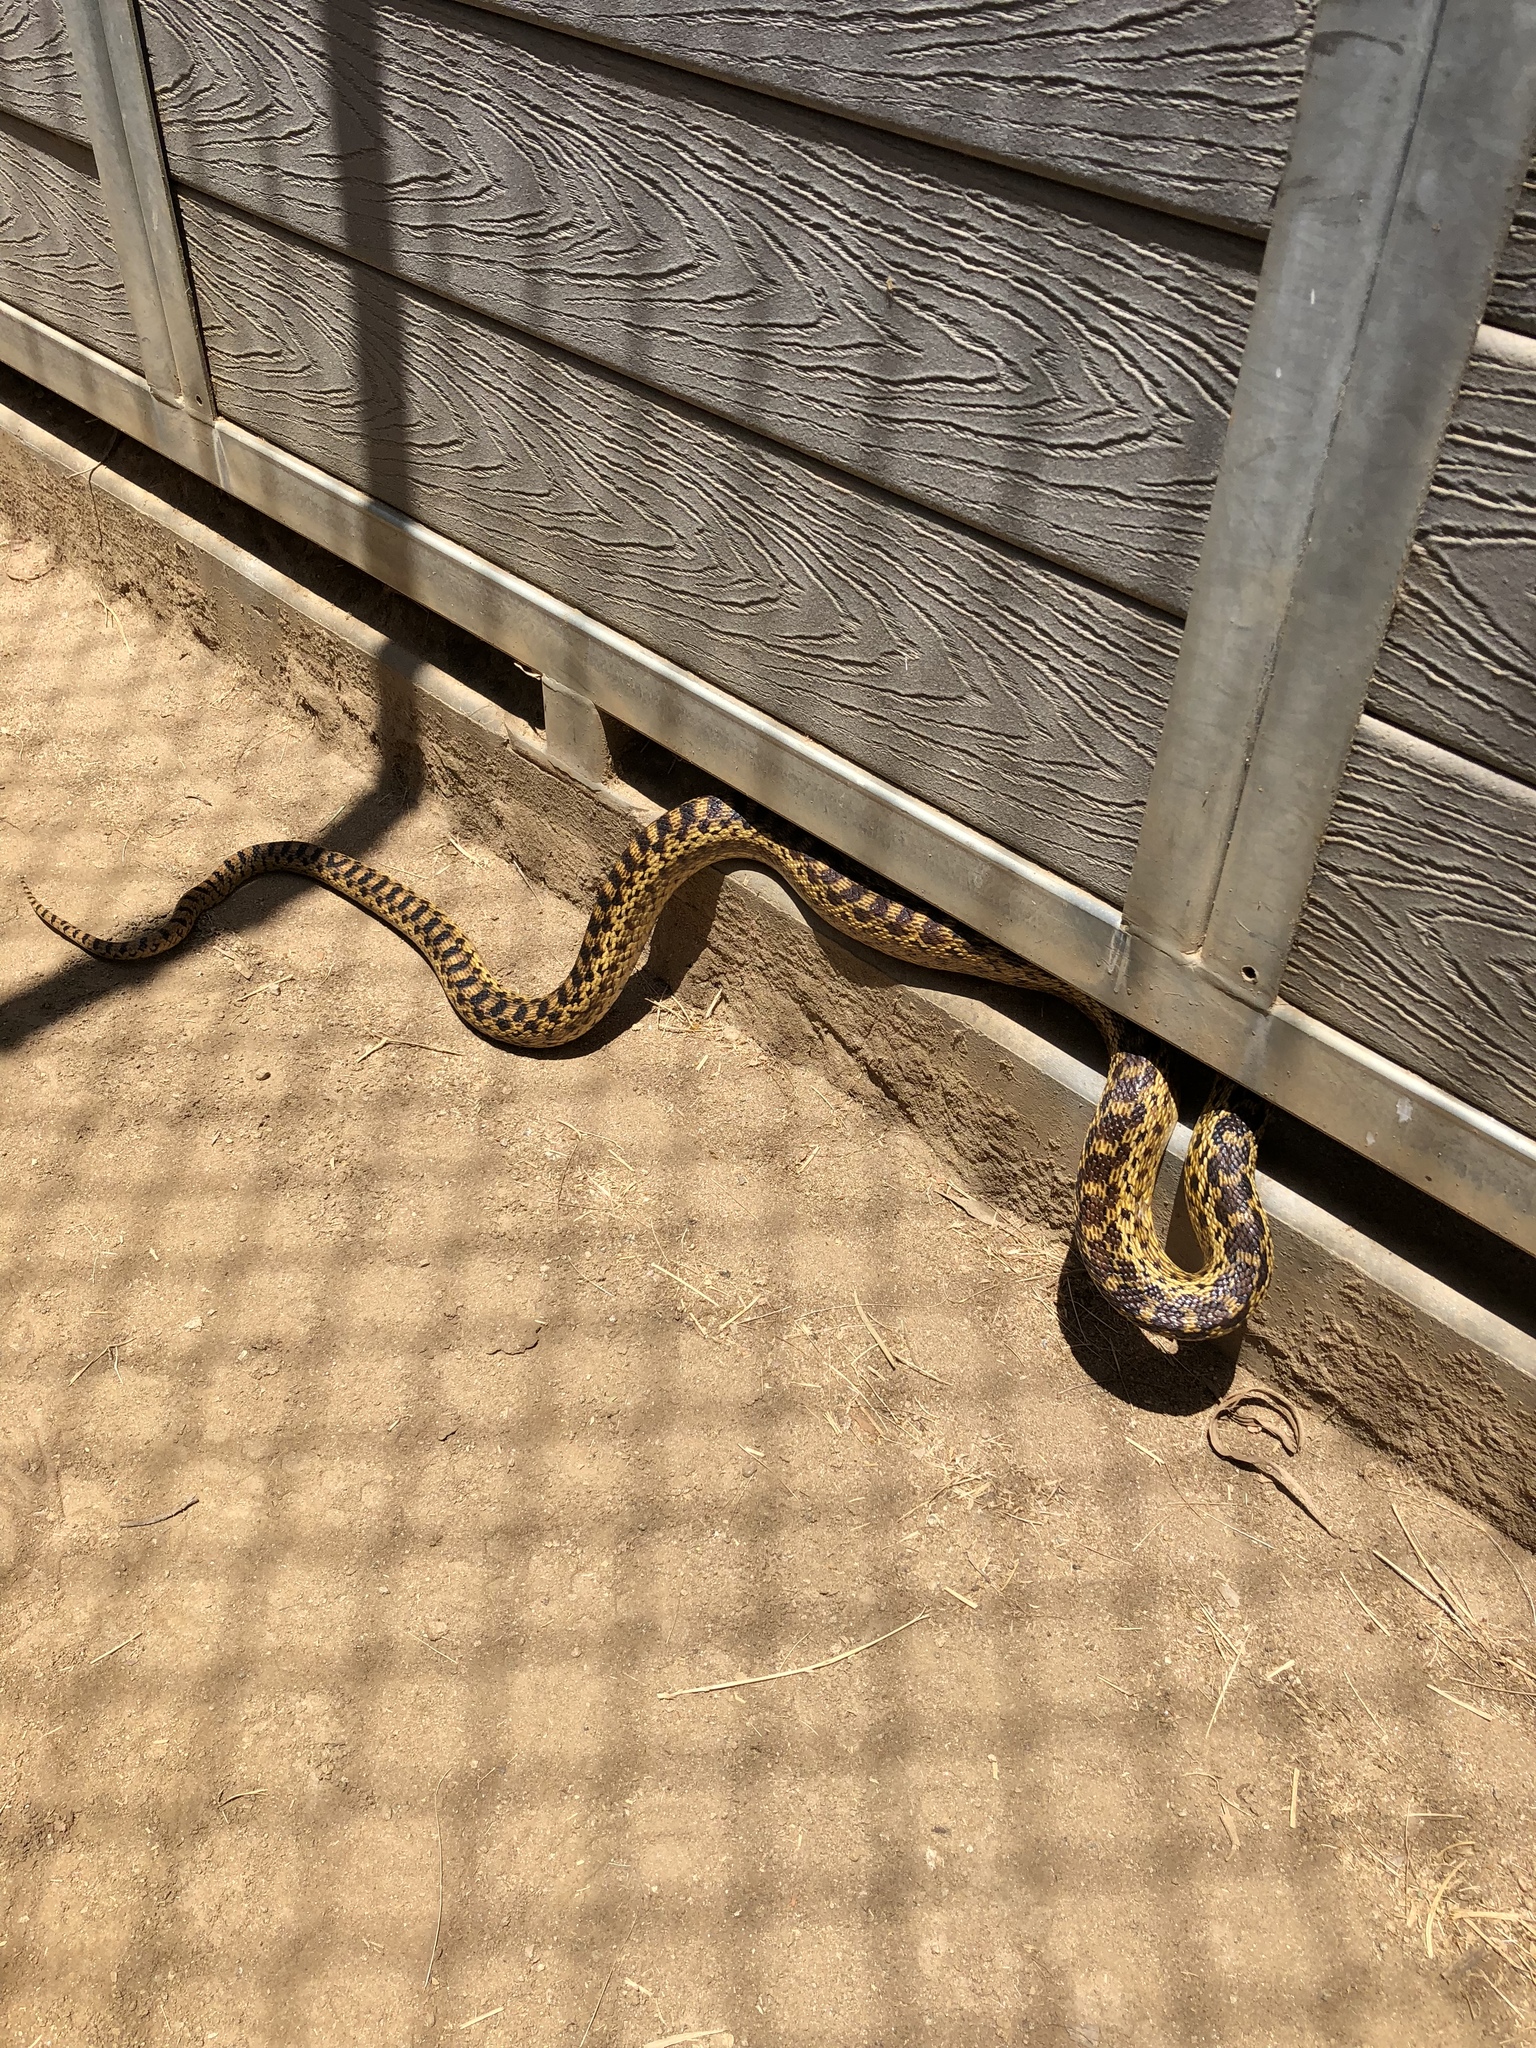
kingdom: Animalia
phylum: Chordata
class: Squamata
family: Colubridae
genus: Pituophis
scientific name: Pituophis catenifer
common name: Gopher snake
